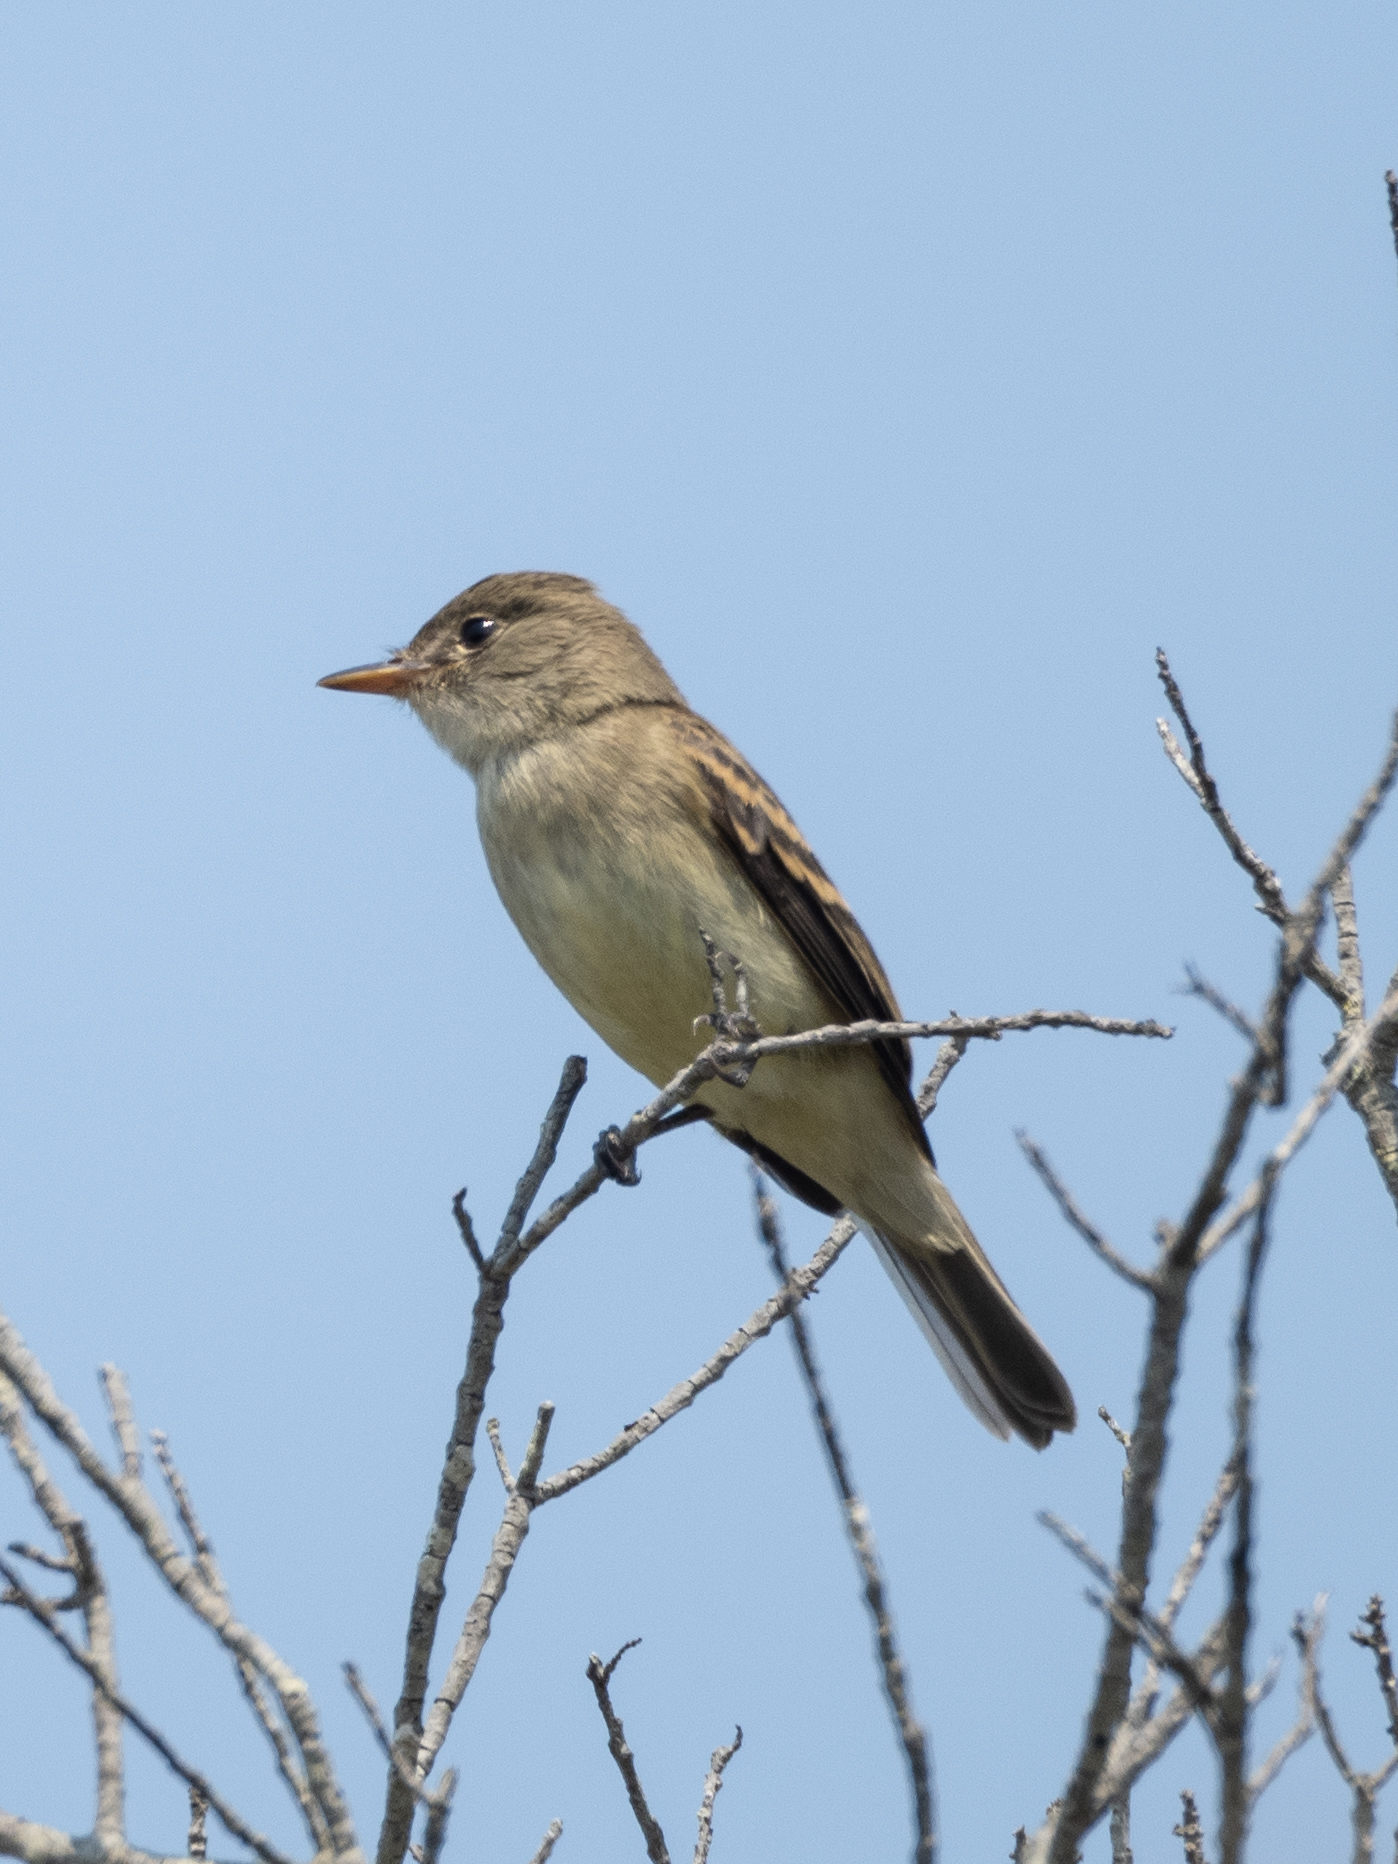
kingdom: Animalia
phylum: Chordata
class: Aves
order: Passeriformes
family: Tyrannidae
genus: Empidonax
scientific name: Empidonax traillii
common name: Willow flycatcher
